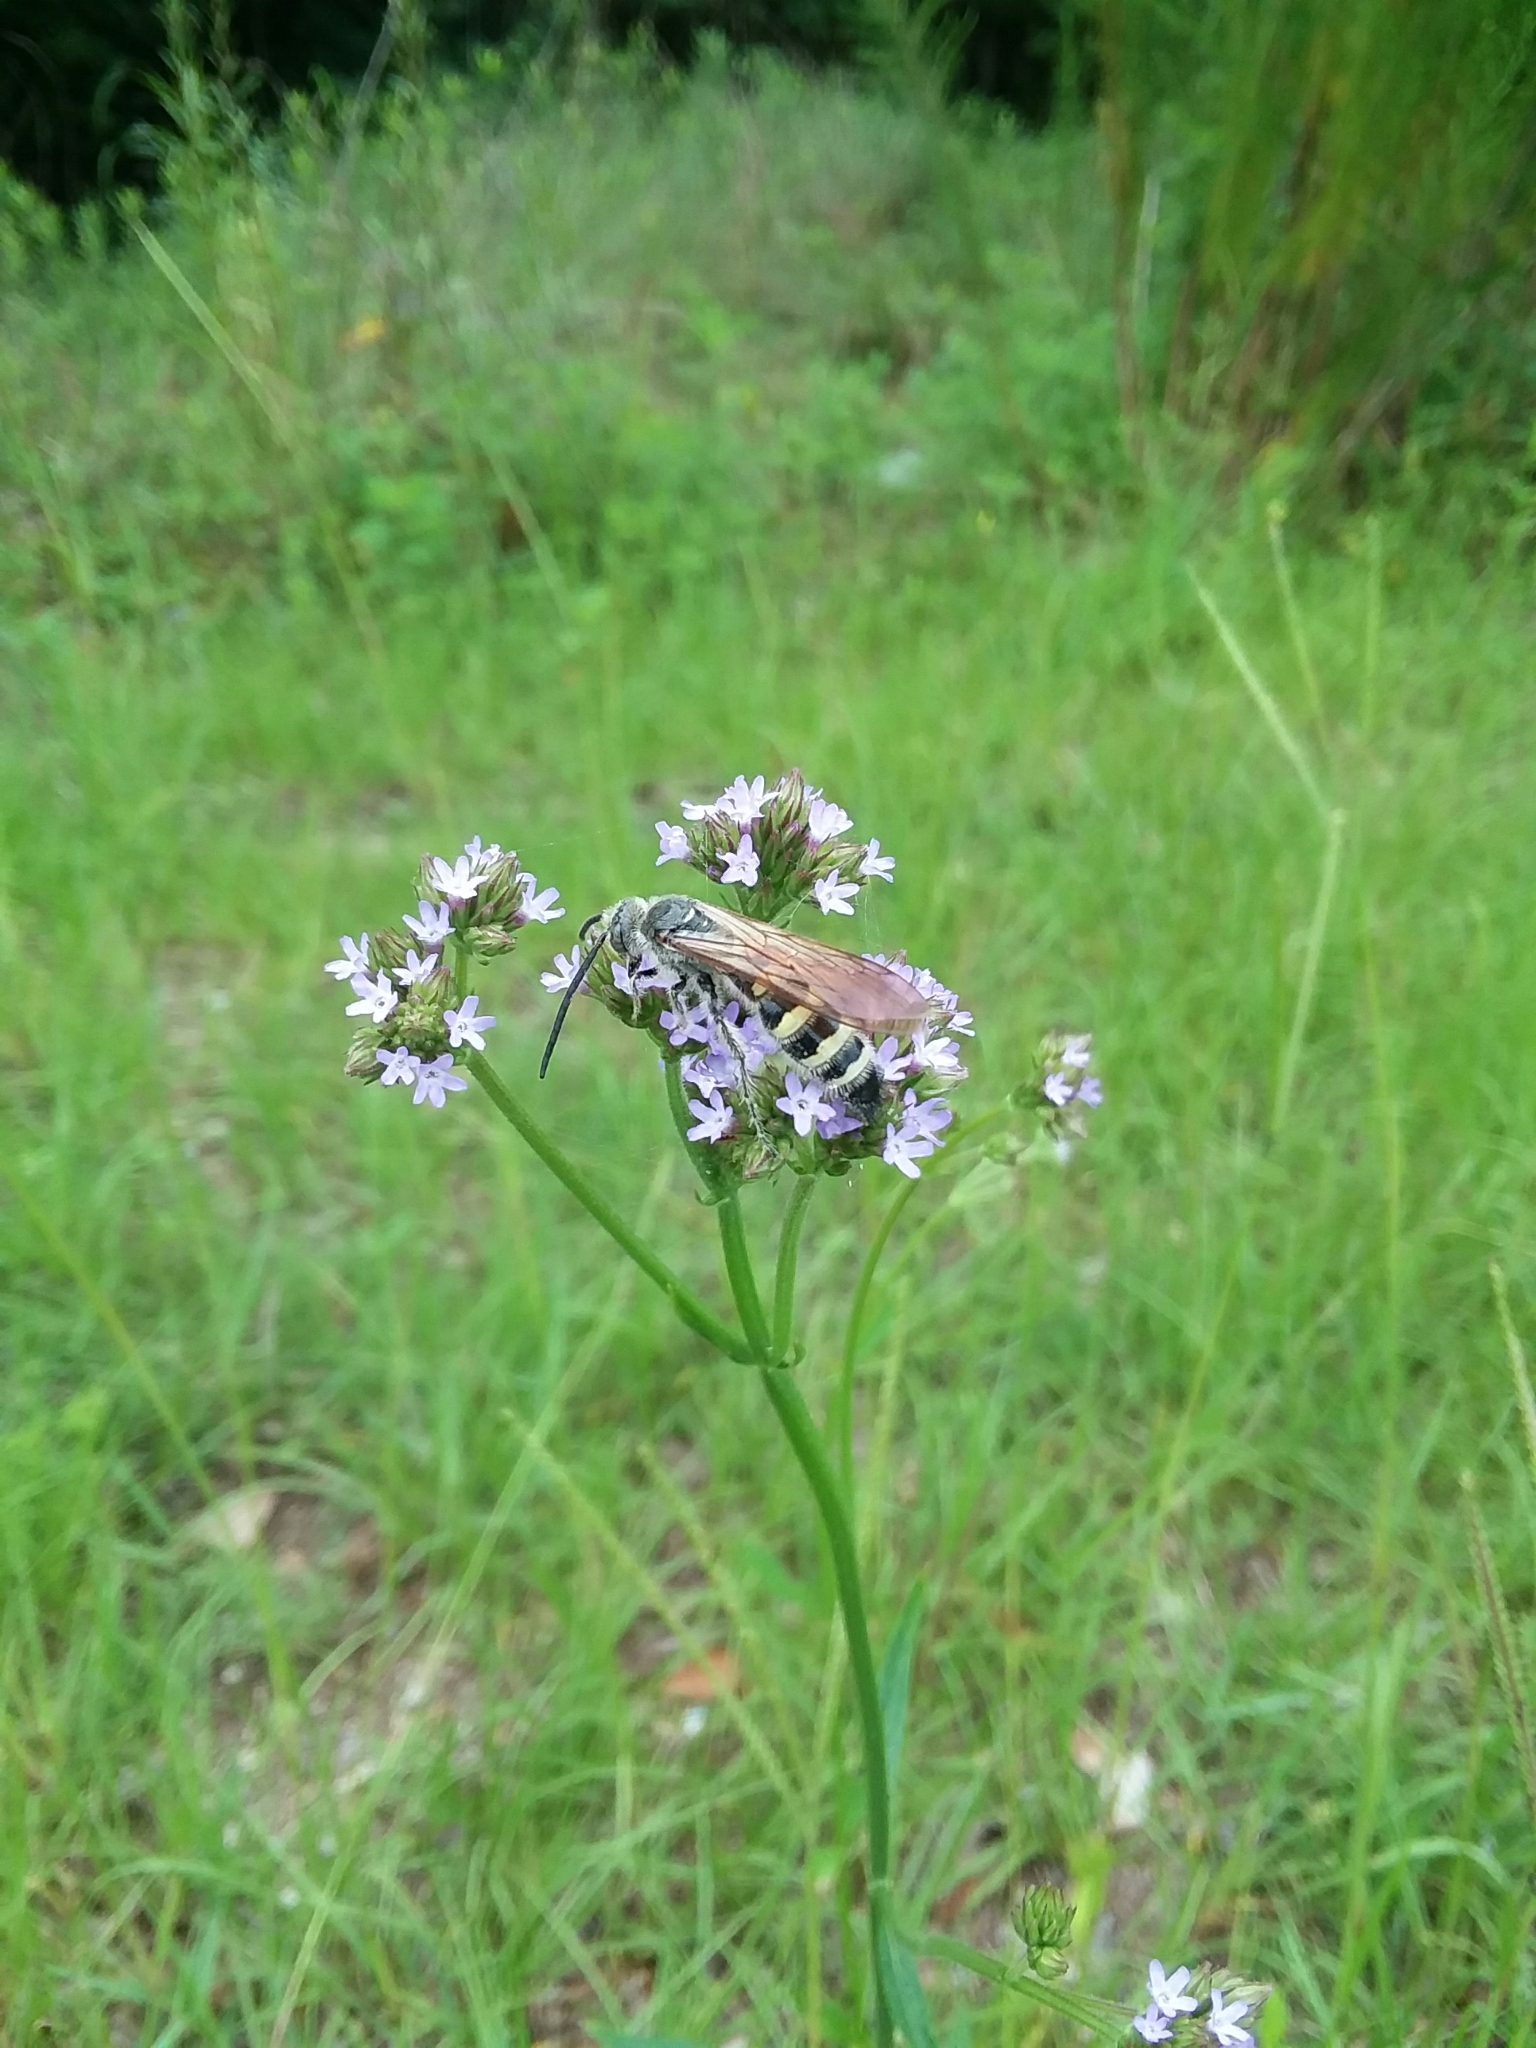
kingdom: Animalia
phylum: Arthropoda
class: Insecta
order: Hymenoptera
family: Scoliidae
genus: Dielis
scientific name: Dielis
